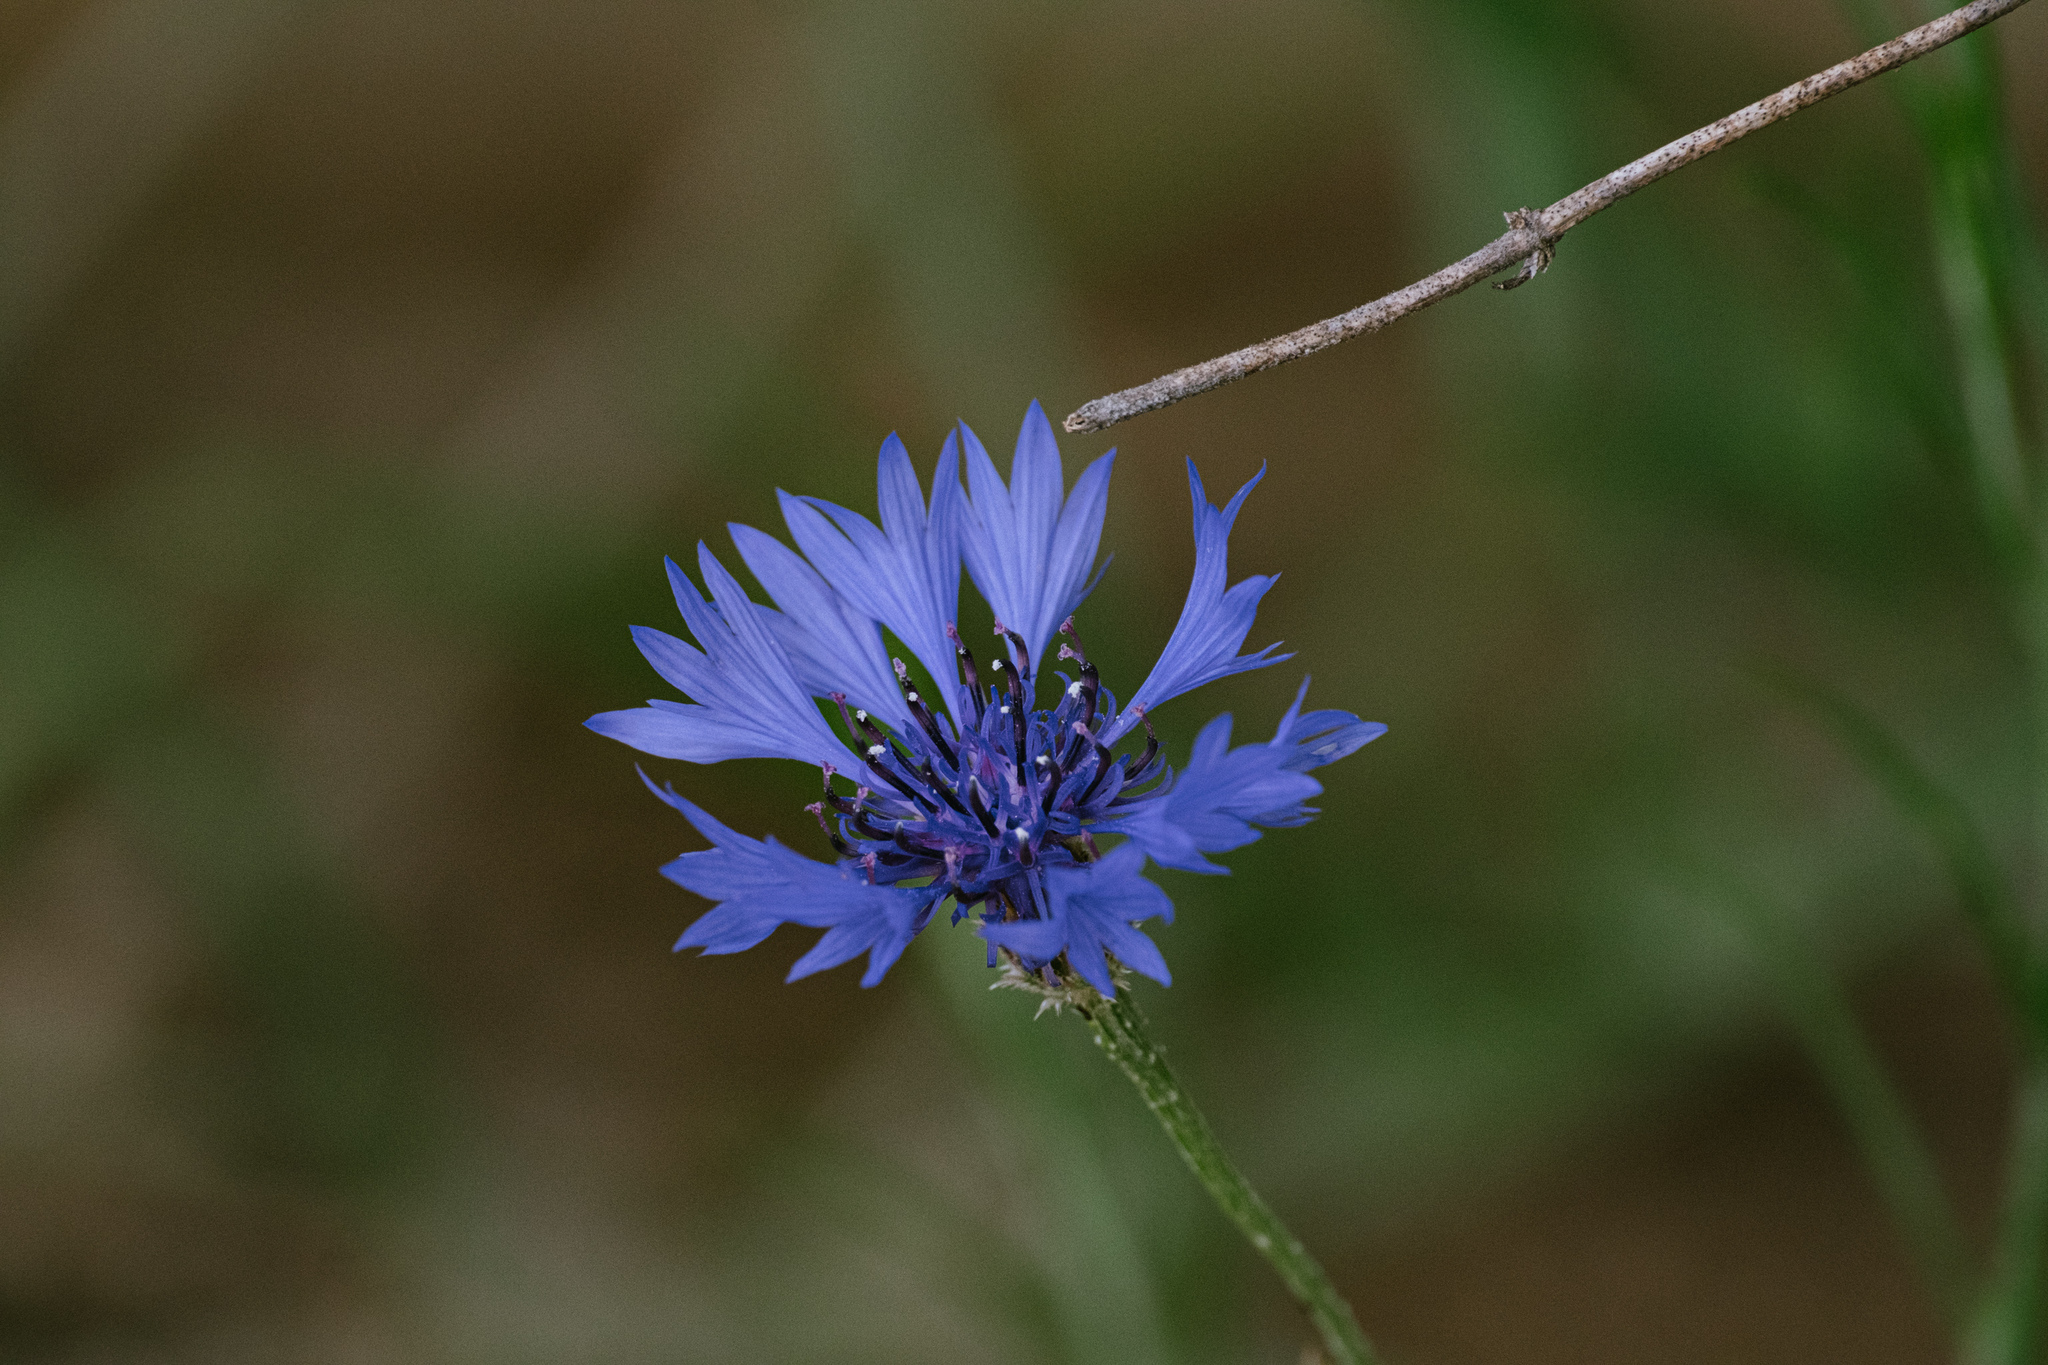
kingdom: Plantae
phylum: Tracheophyta
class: Magnoliopsida
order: Asterales
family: Asteraceae
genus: Centaurea
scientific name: Centaurea cyanus
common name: Cornflower
